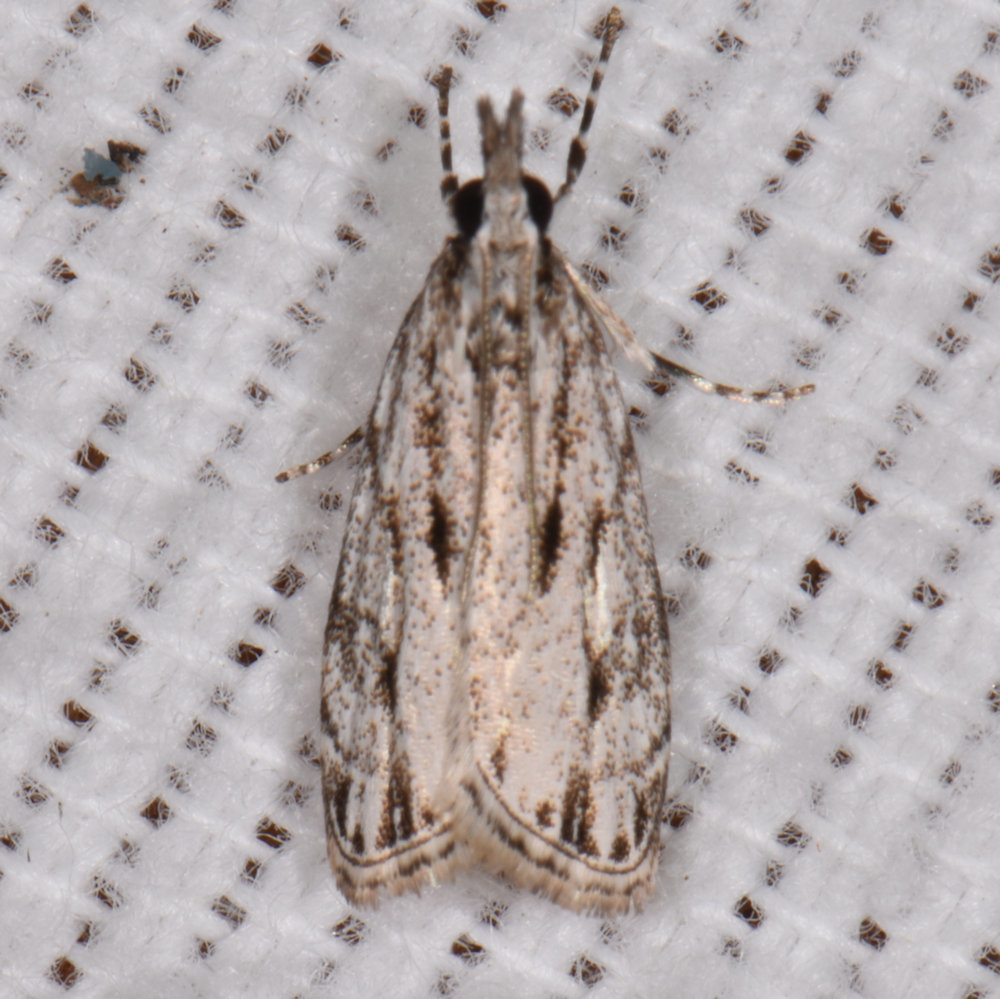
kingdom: Animalia
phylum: Arthropoda
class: Insecta
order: Lepidoptera
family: Crambidae
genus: Eudonia
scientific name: Eudonia strigalis
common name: Striped eudonia moth
